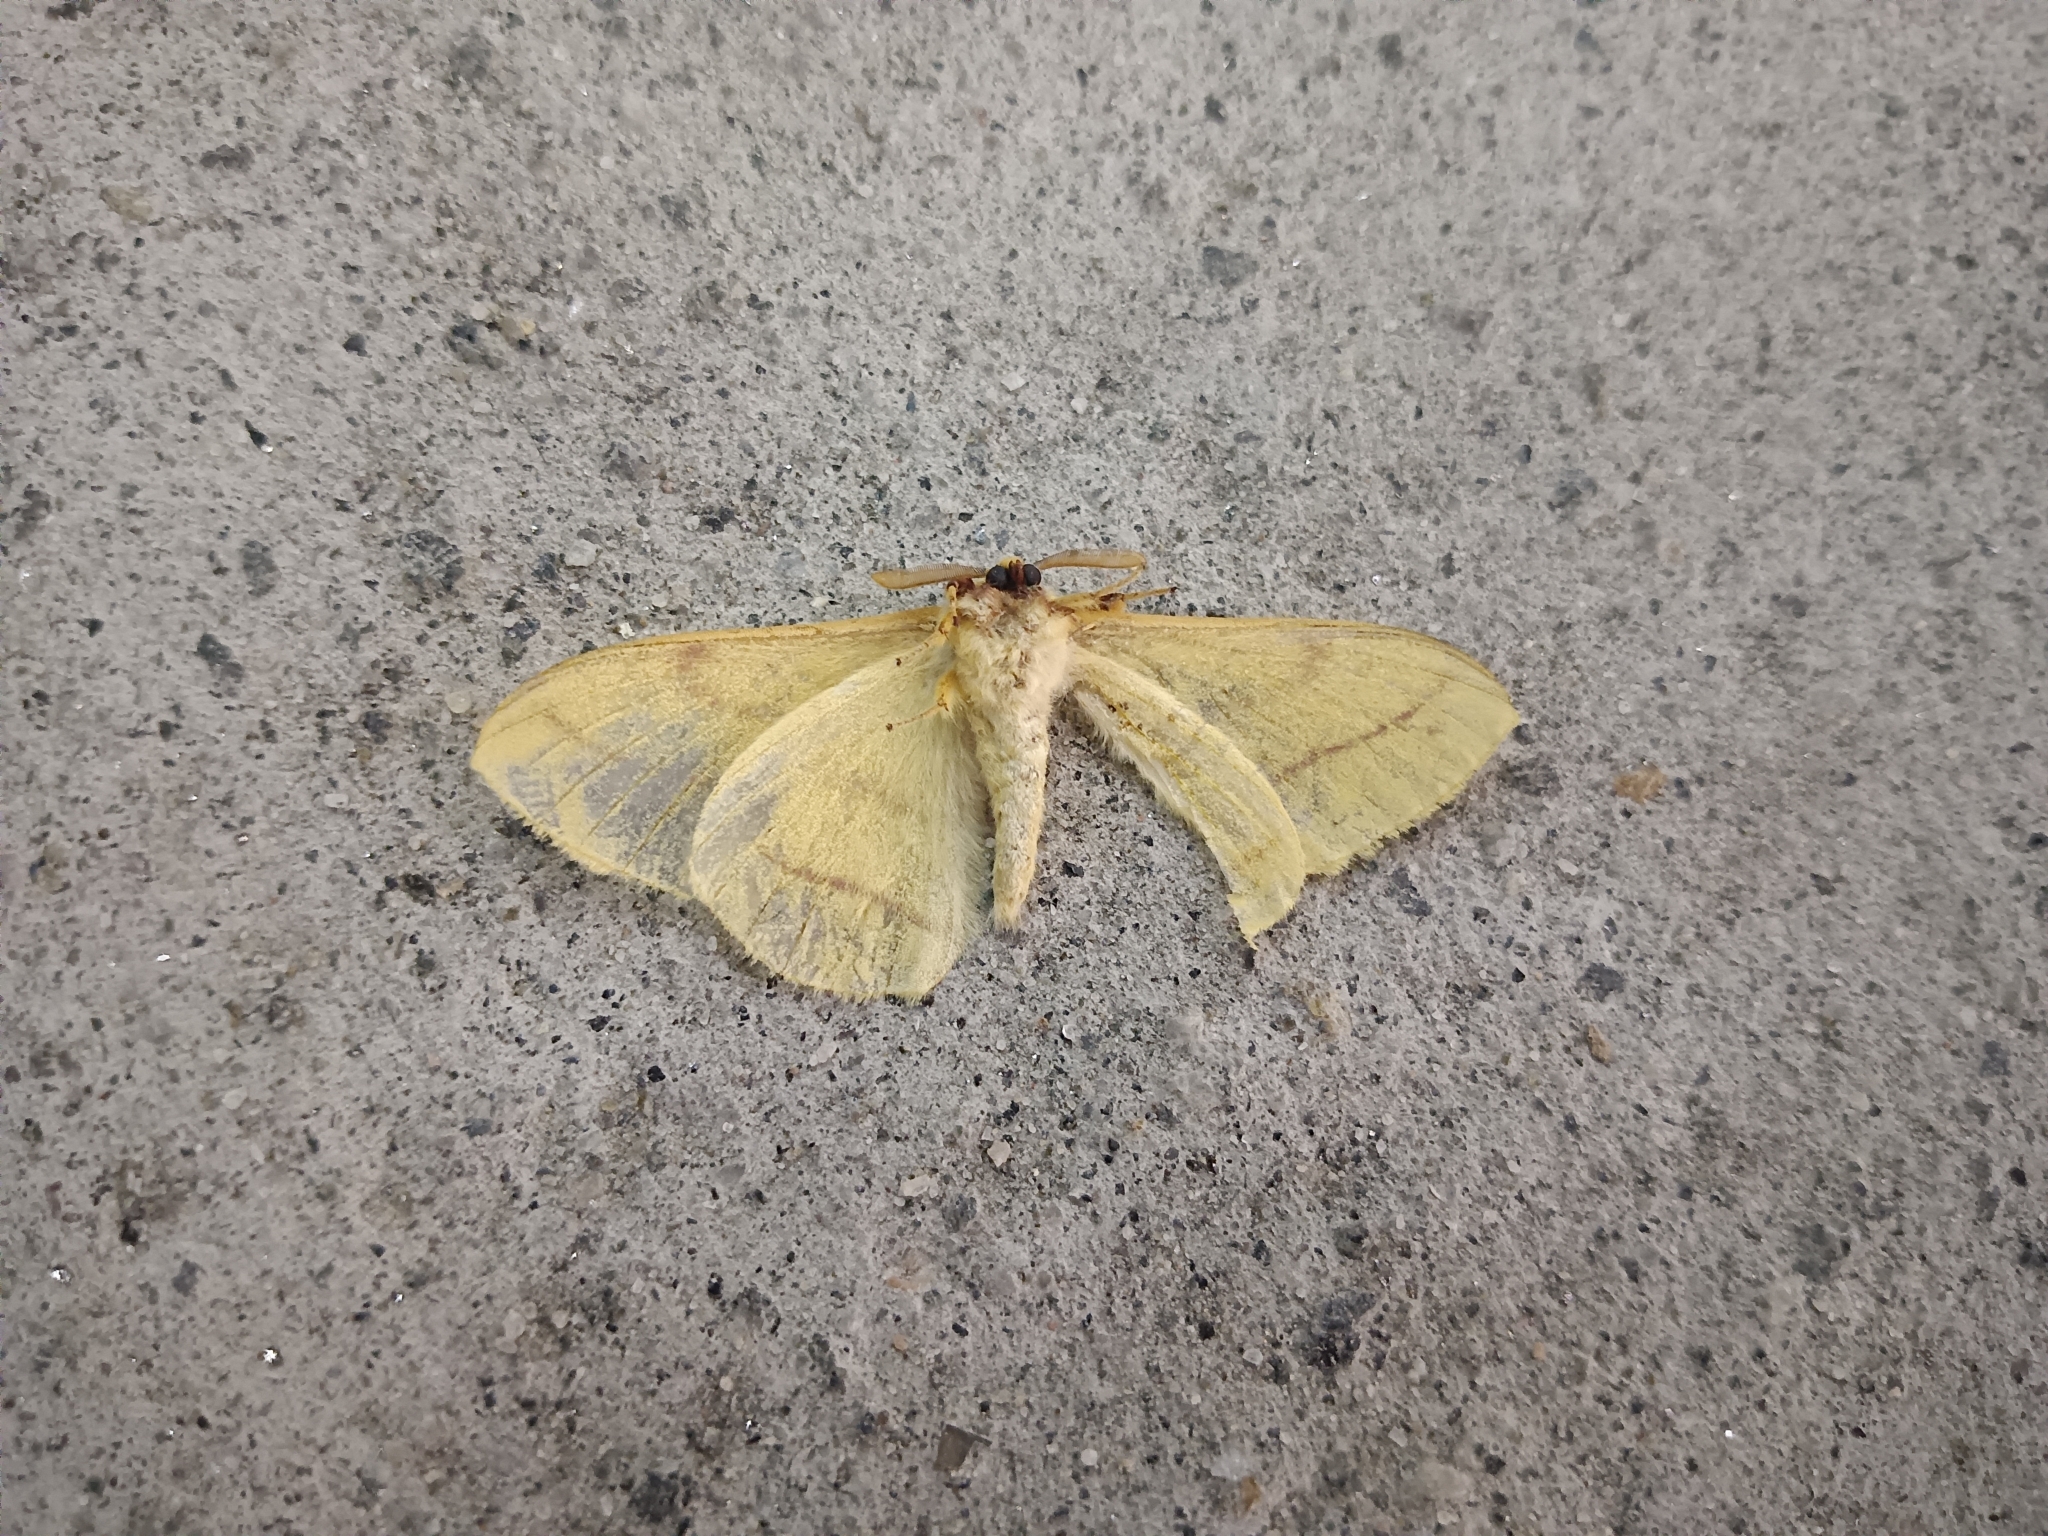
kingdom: Animalia
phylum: Arthropoda
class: Insecta
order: Lepidoptera
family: Eupterotidae
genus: Eupterote
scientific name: Eupterote
